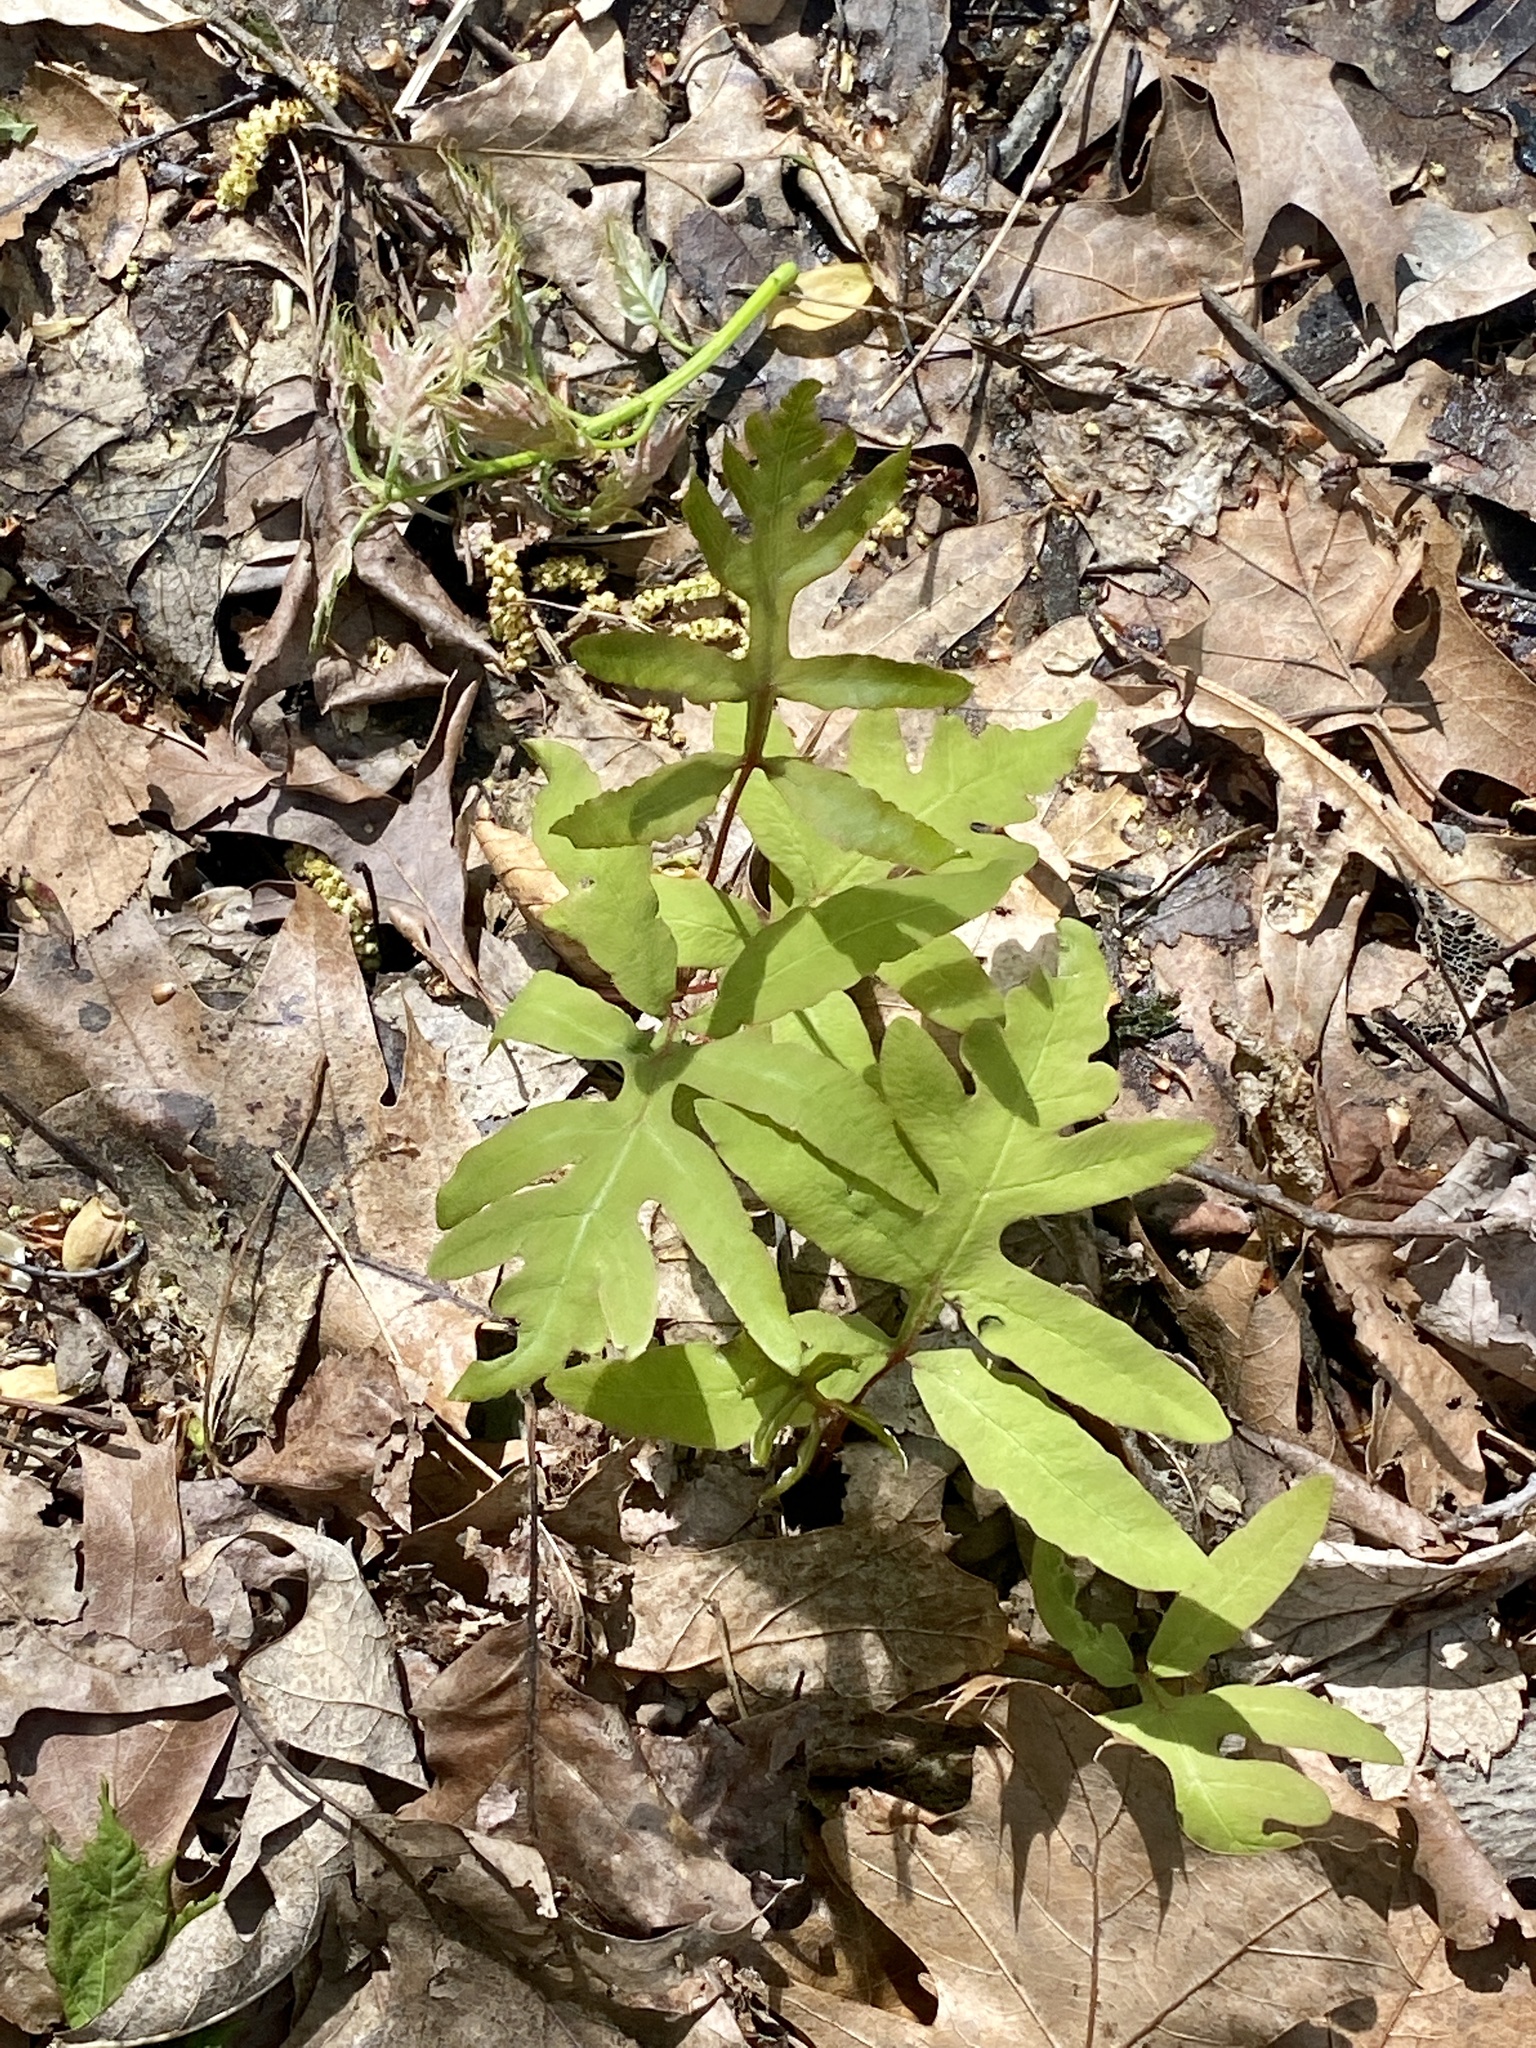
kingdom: Plantae
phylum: Tracheophyta
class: Polypodiopsida
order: Polypodiales
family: Onocleaceae
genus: Onoclea
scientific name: Onoclea sensibilis
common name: Sensitive fern
